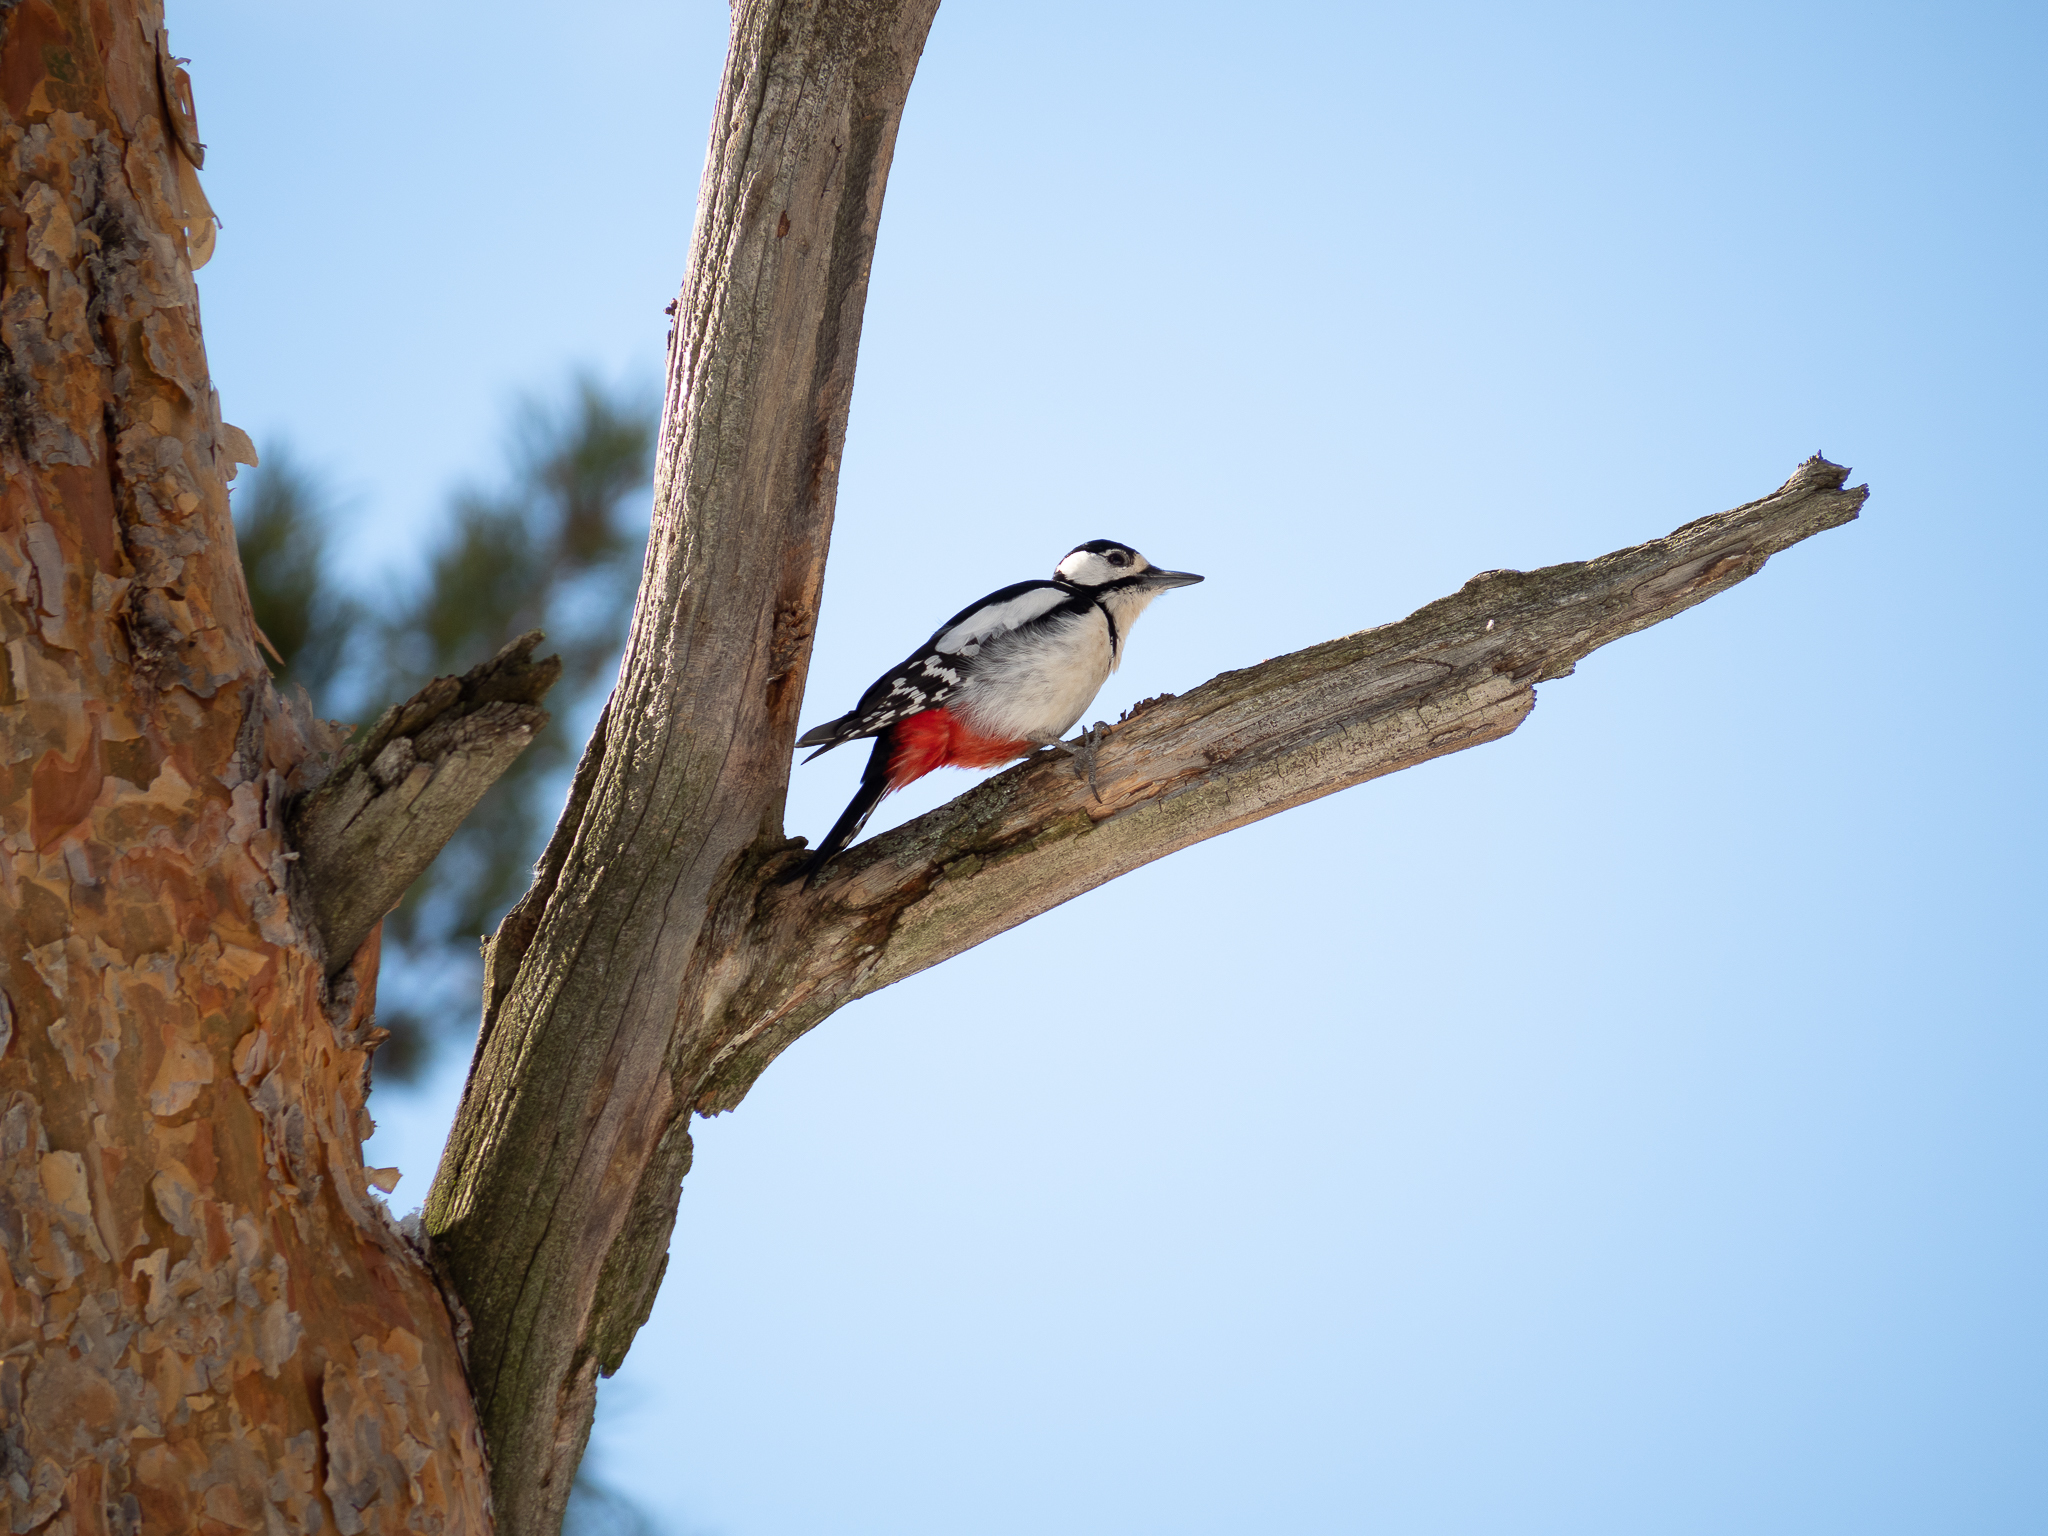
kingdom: Animalia
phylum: Chordata
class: Aves
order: Piciformes
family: Picidae
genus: Dendrocopos
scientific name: Dendrocopos major
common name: Great spotted woodpecker
